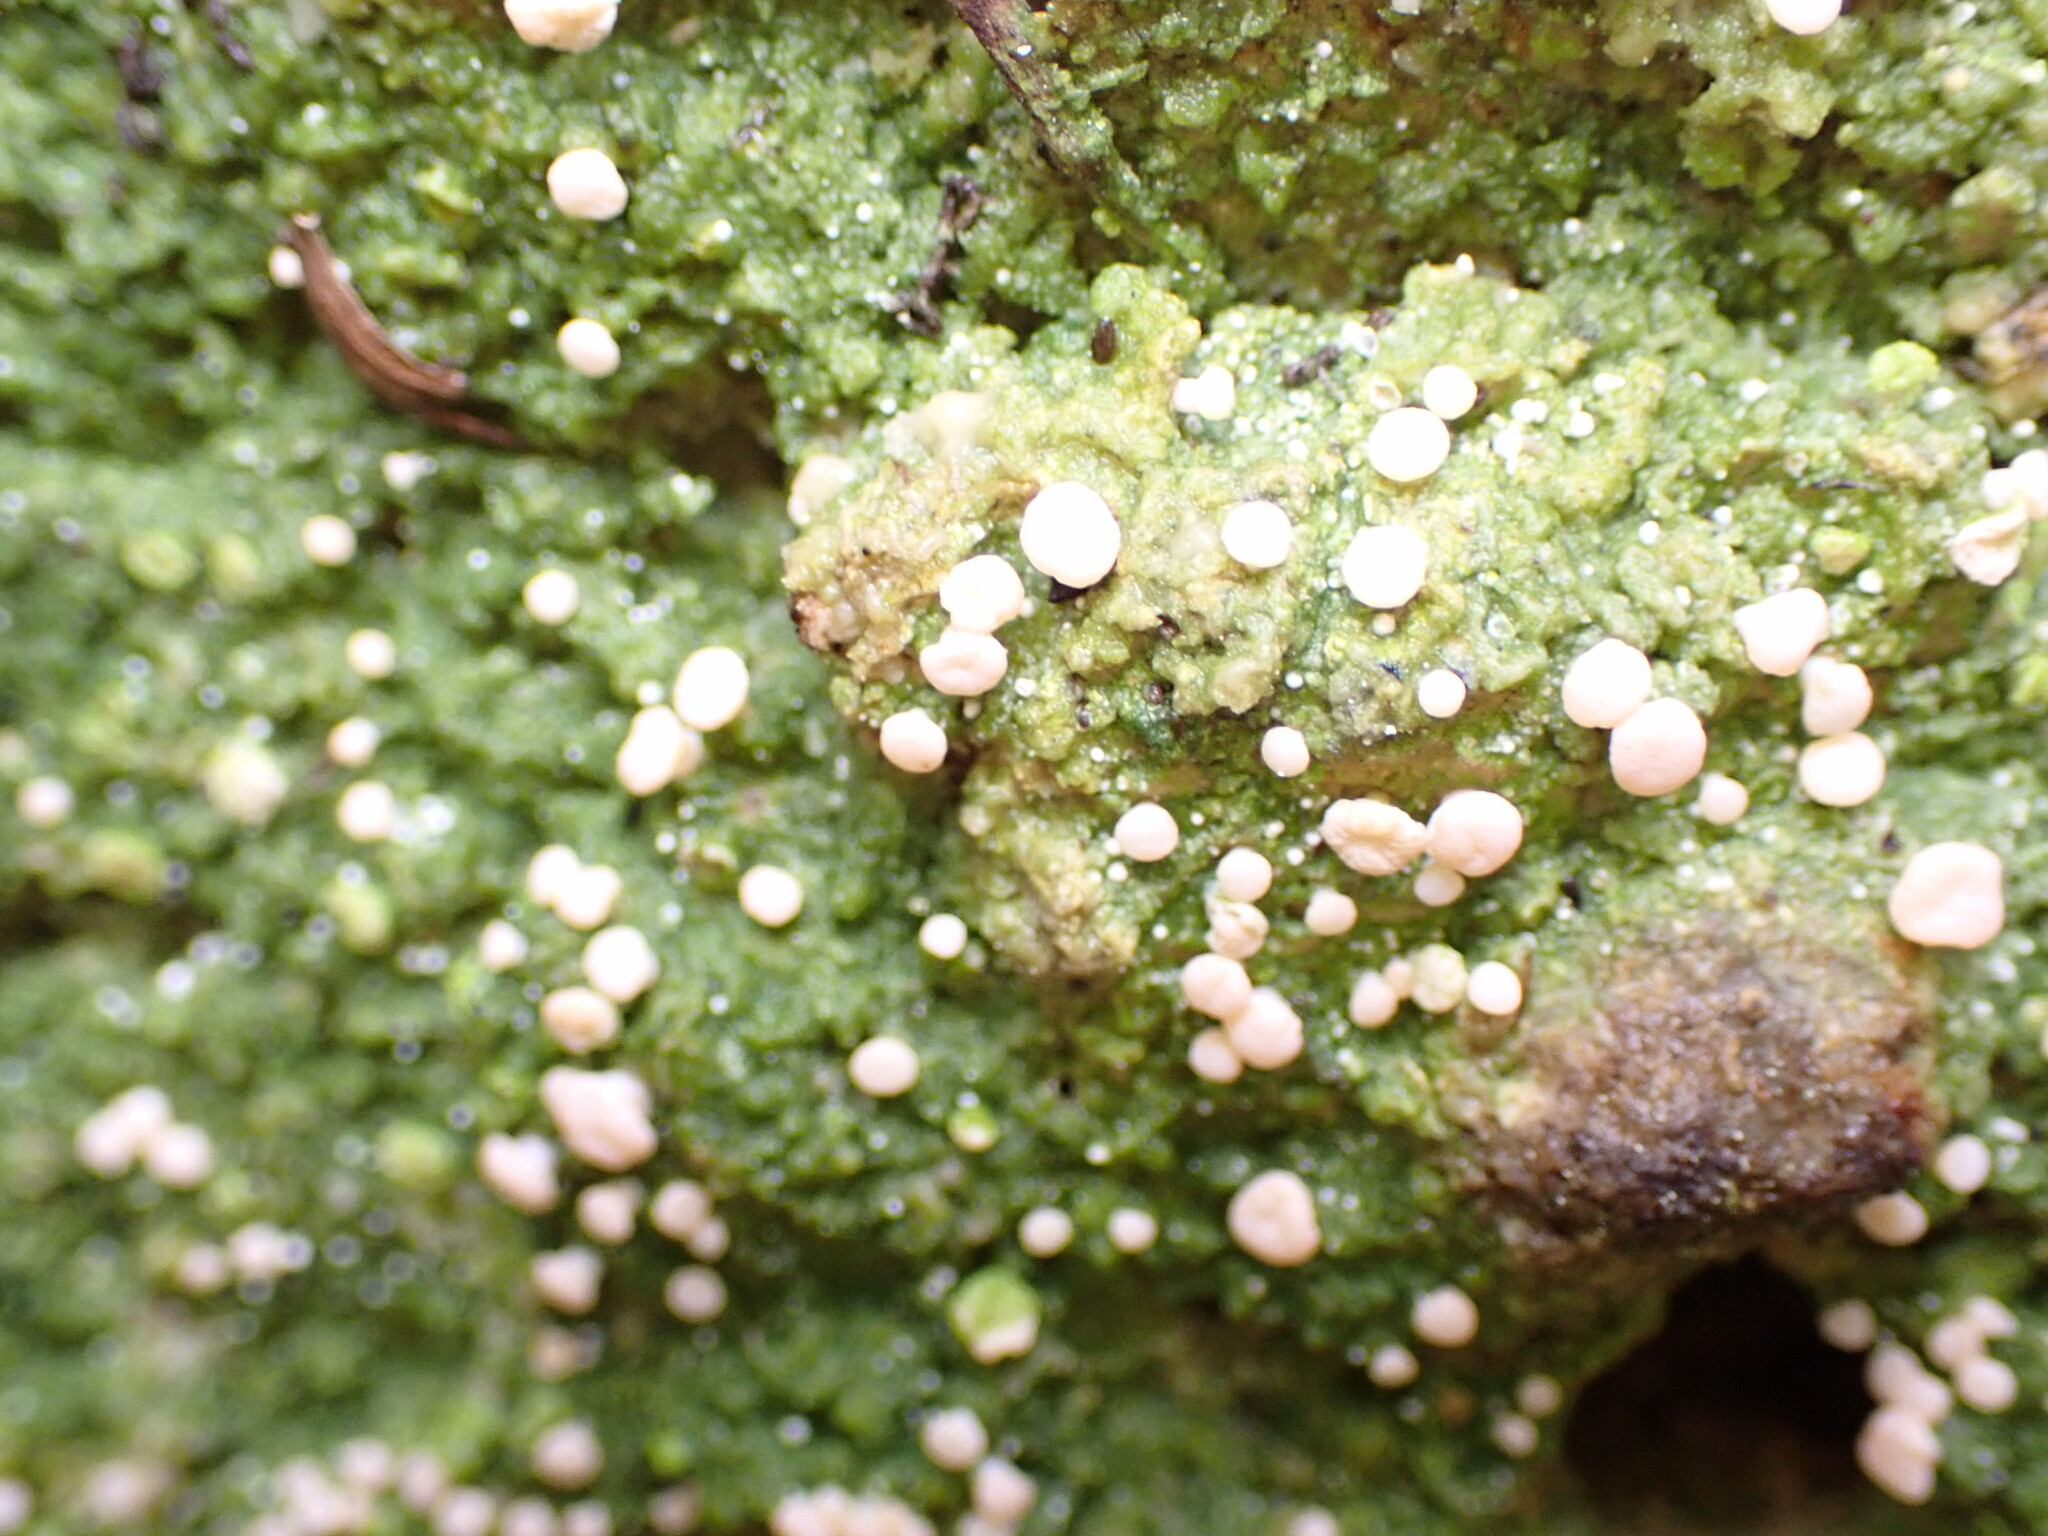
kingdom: Fungi
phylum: Ascomycota
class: Lecanoromycetes
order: Pertusariales
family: Icmadophilaceae
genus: Dibaeis
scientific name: Dibaeis absoluta
